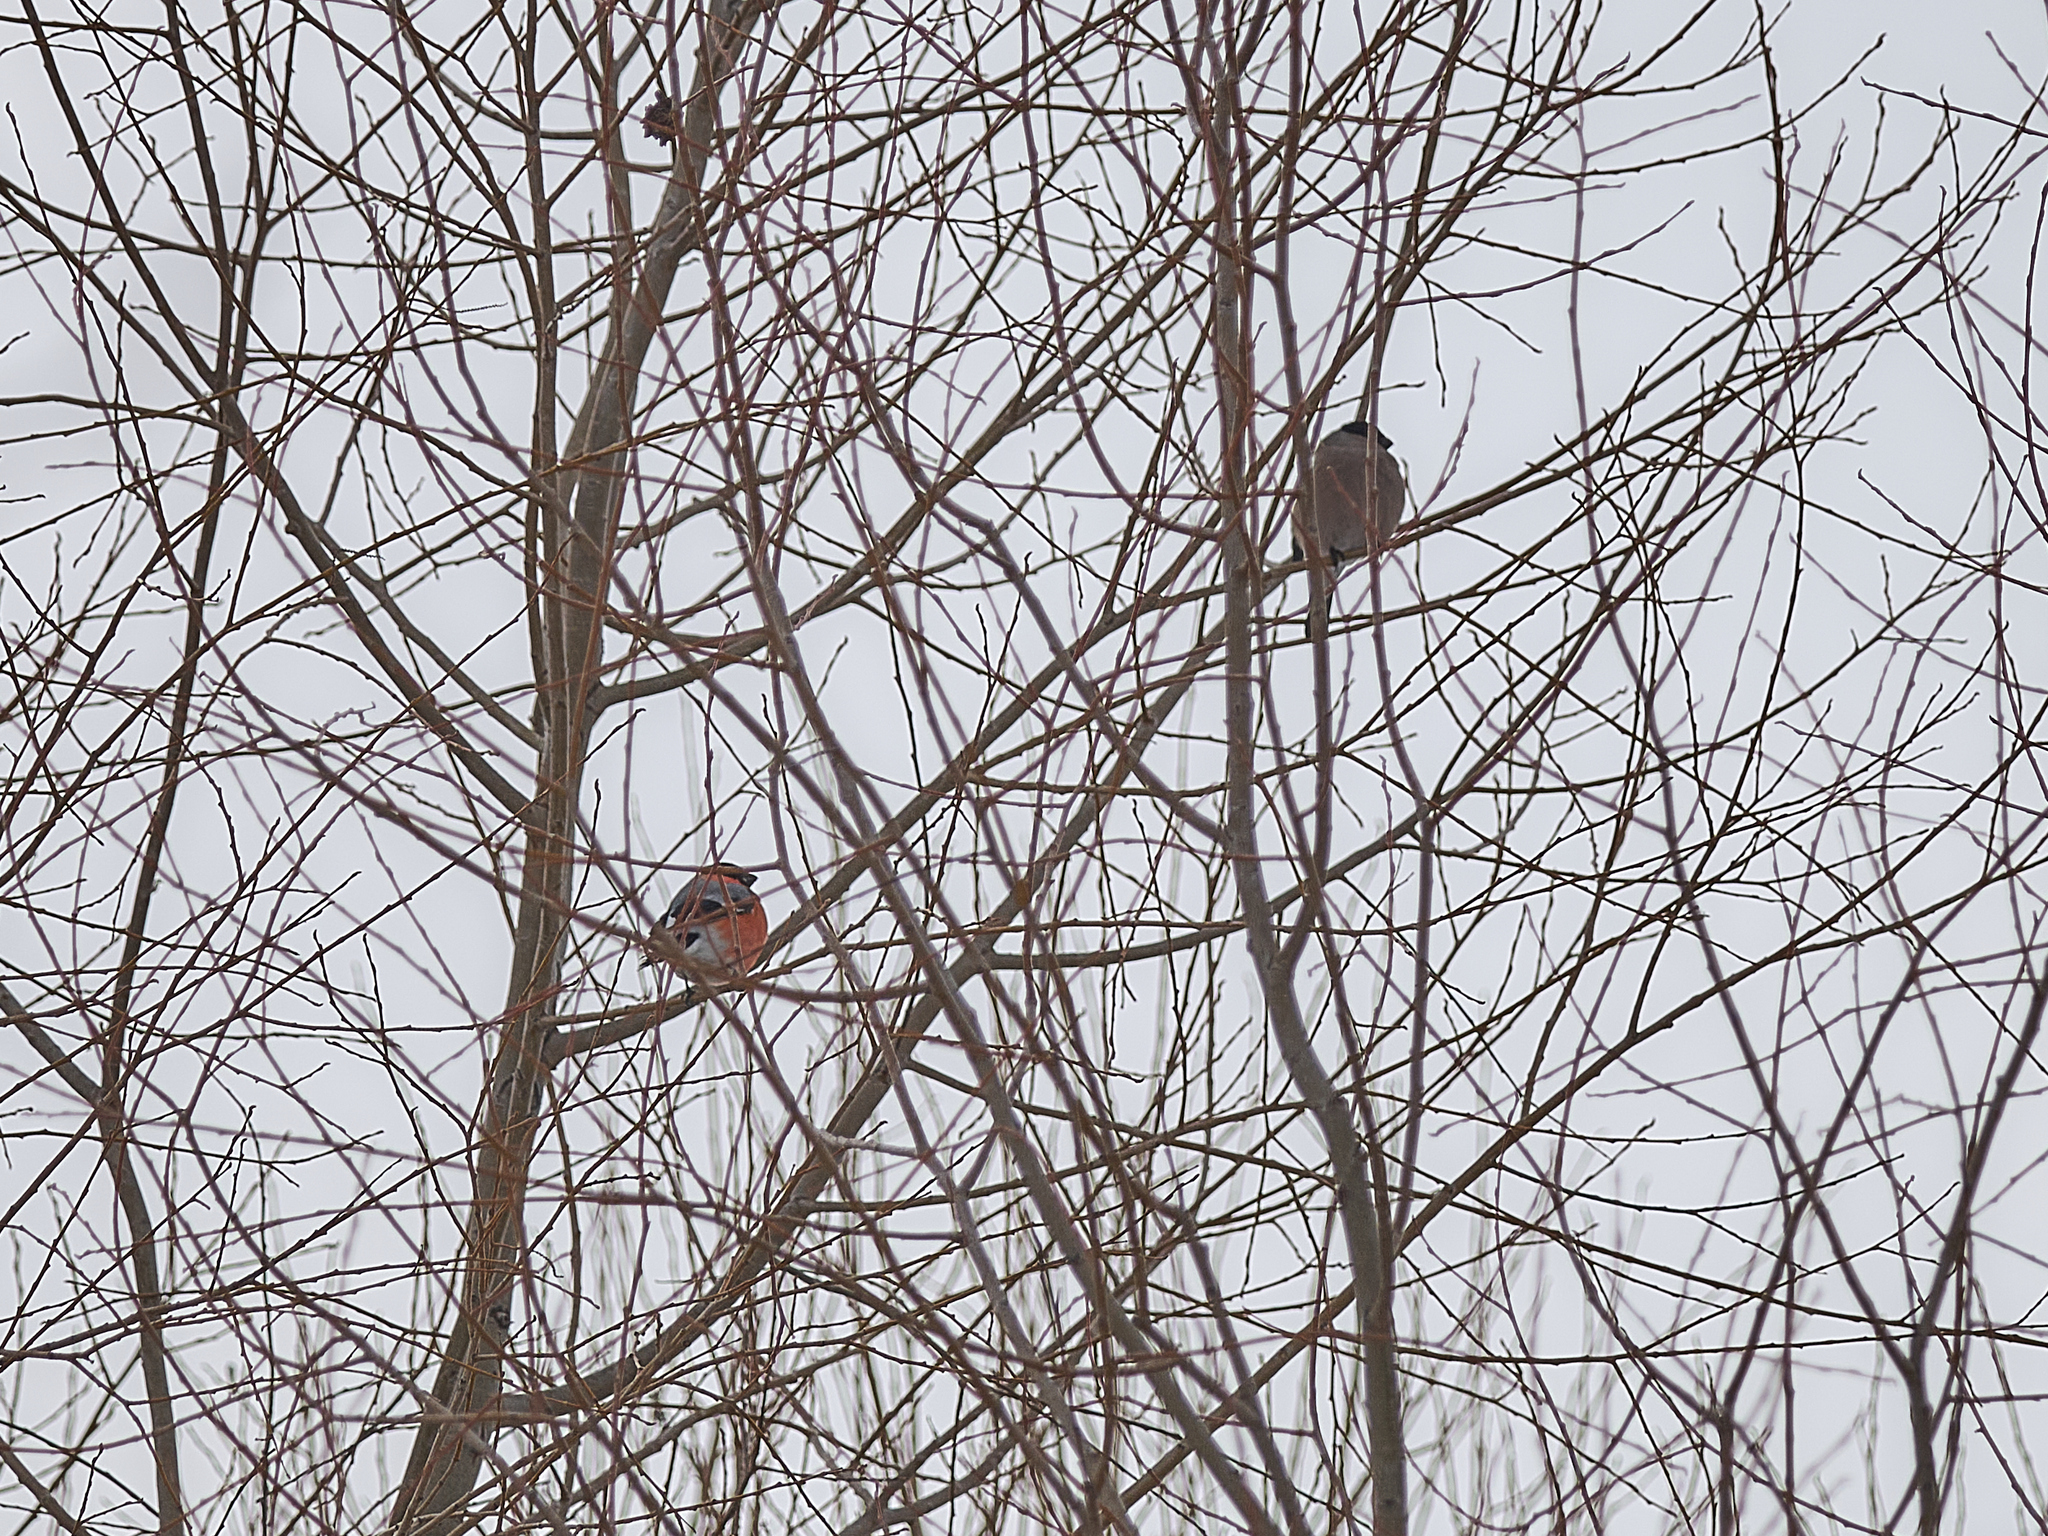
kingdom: Animalia
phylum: Chordata
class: Aves
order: Passeriformes
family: Fringillidae
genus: Pyrrhula
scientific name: Pyrrhula pyrrhula
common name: Eurasian bullfinch
